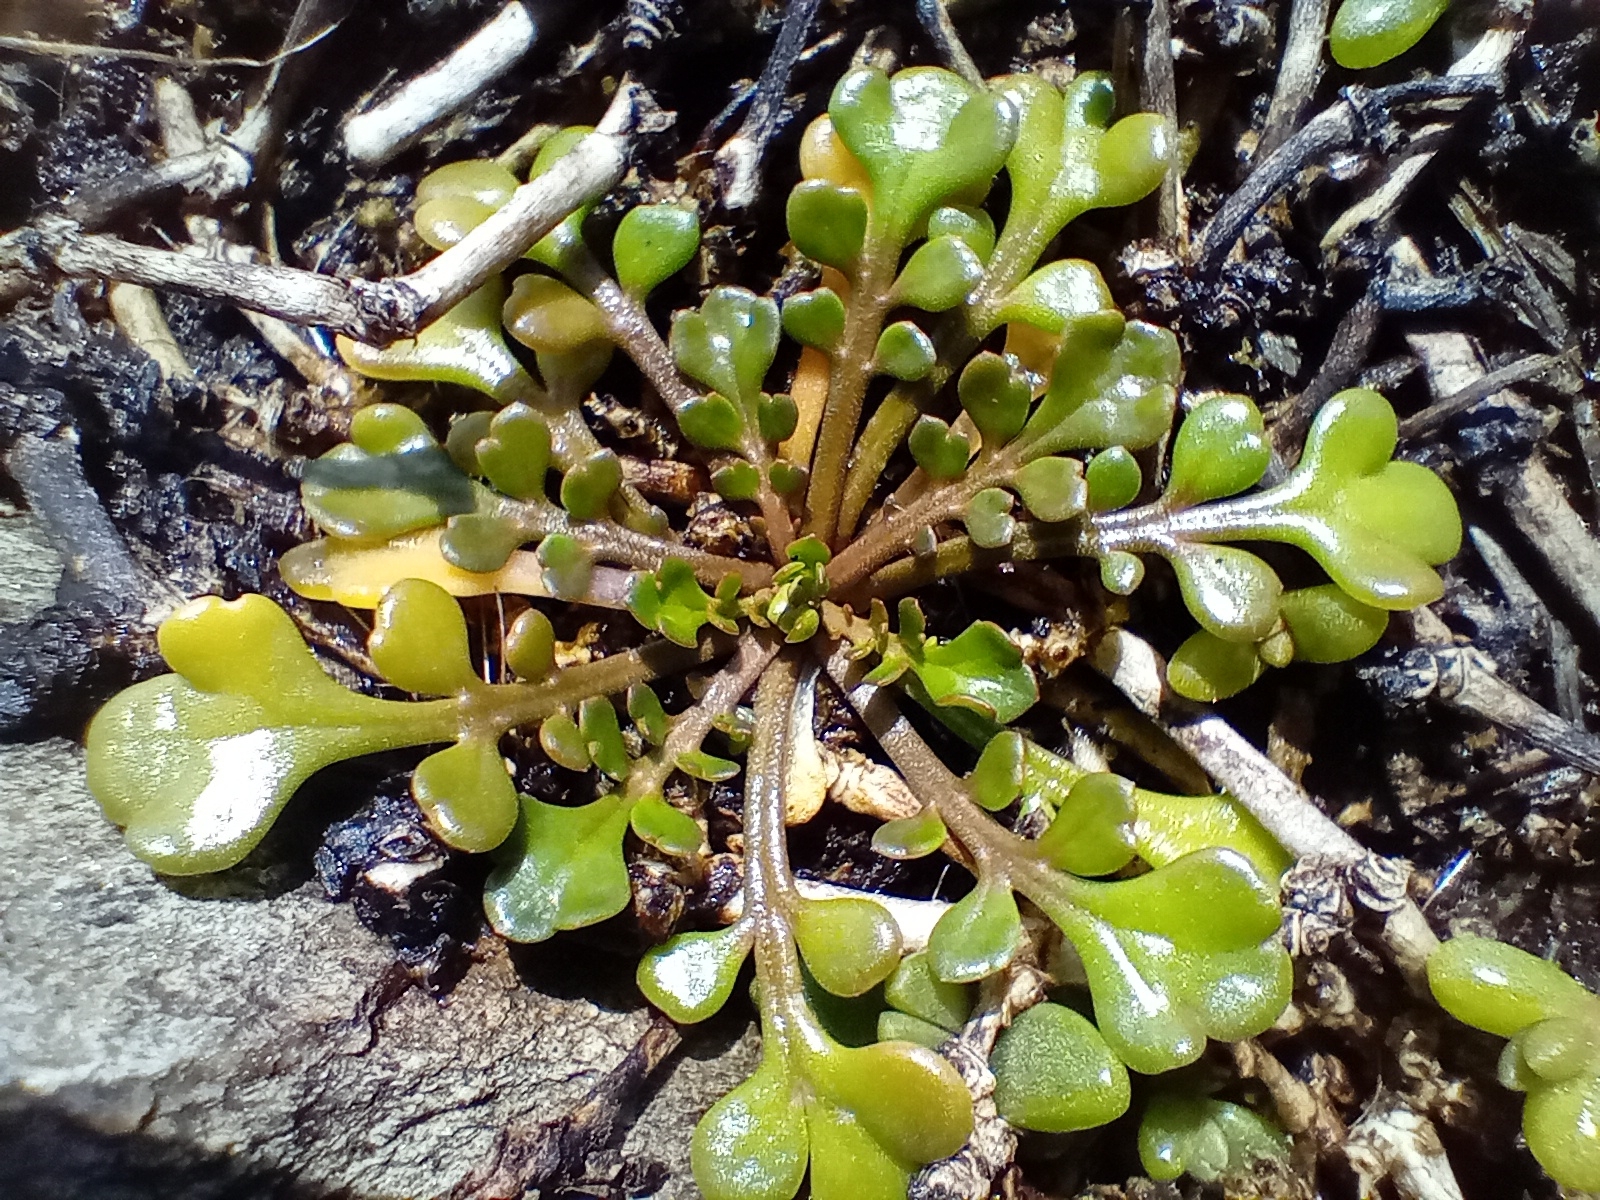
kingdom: Plantae
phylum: Tracheophyta
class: Magnoliopsida
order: Brassicales
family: Brassicaceae
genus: Lepidium
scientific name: Lepidium flexicaule
